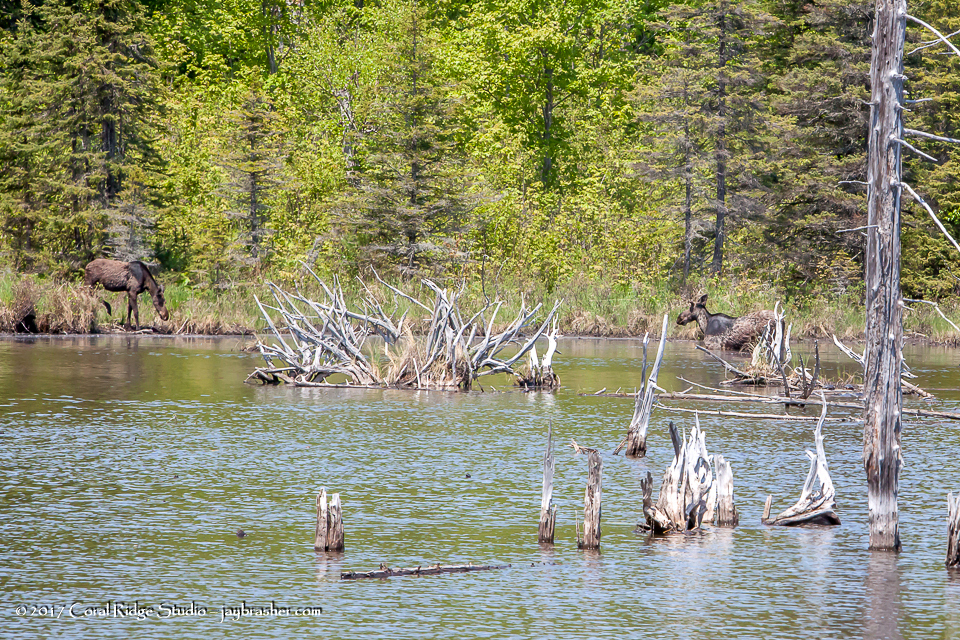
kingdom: Animalia
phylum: Chordata
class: Mammalia
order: Artiodactyla
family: Cervidae
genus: Alces
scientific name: Alces alces
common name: Moose
